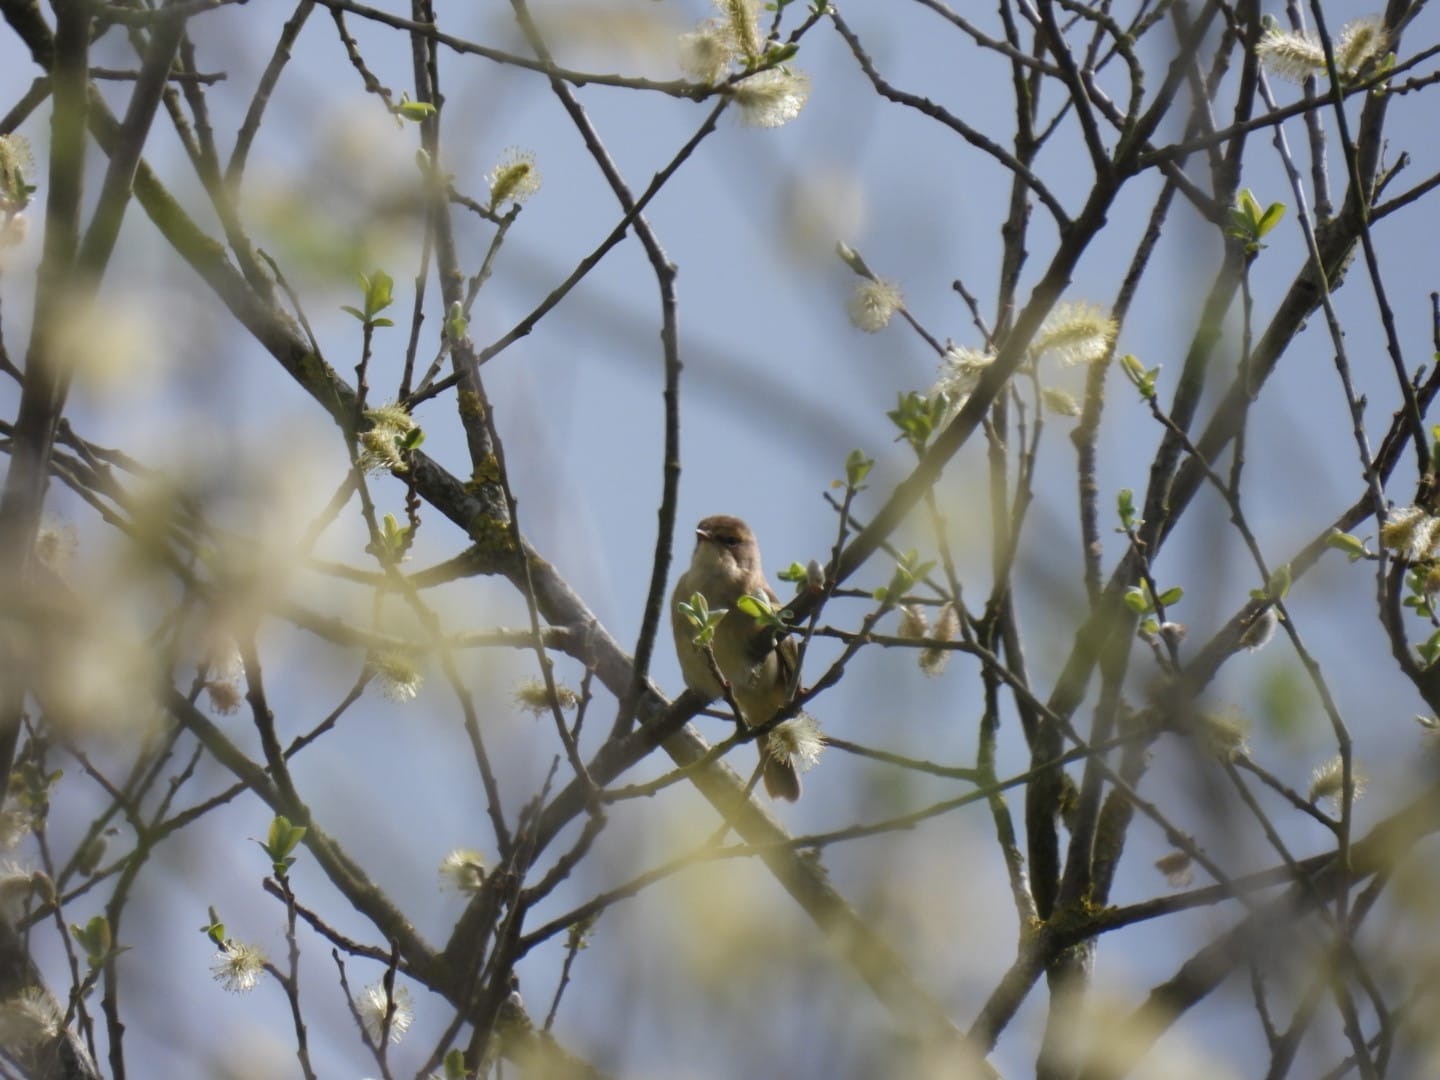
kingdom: Animalia
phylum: Chordata
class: Aves
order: Passeriformes
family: Phylloscopidae
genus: Phylloscopus
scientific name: Phylloscopus collybita
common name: Common chiffchaff
